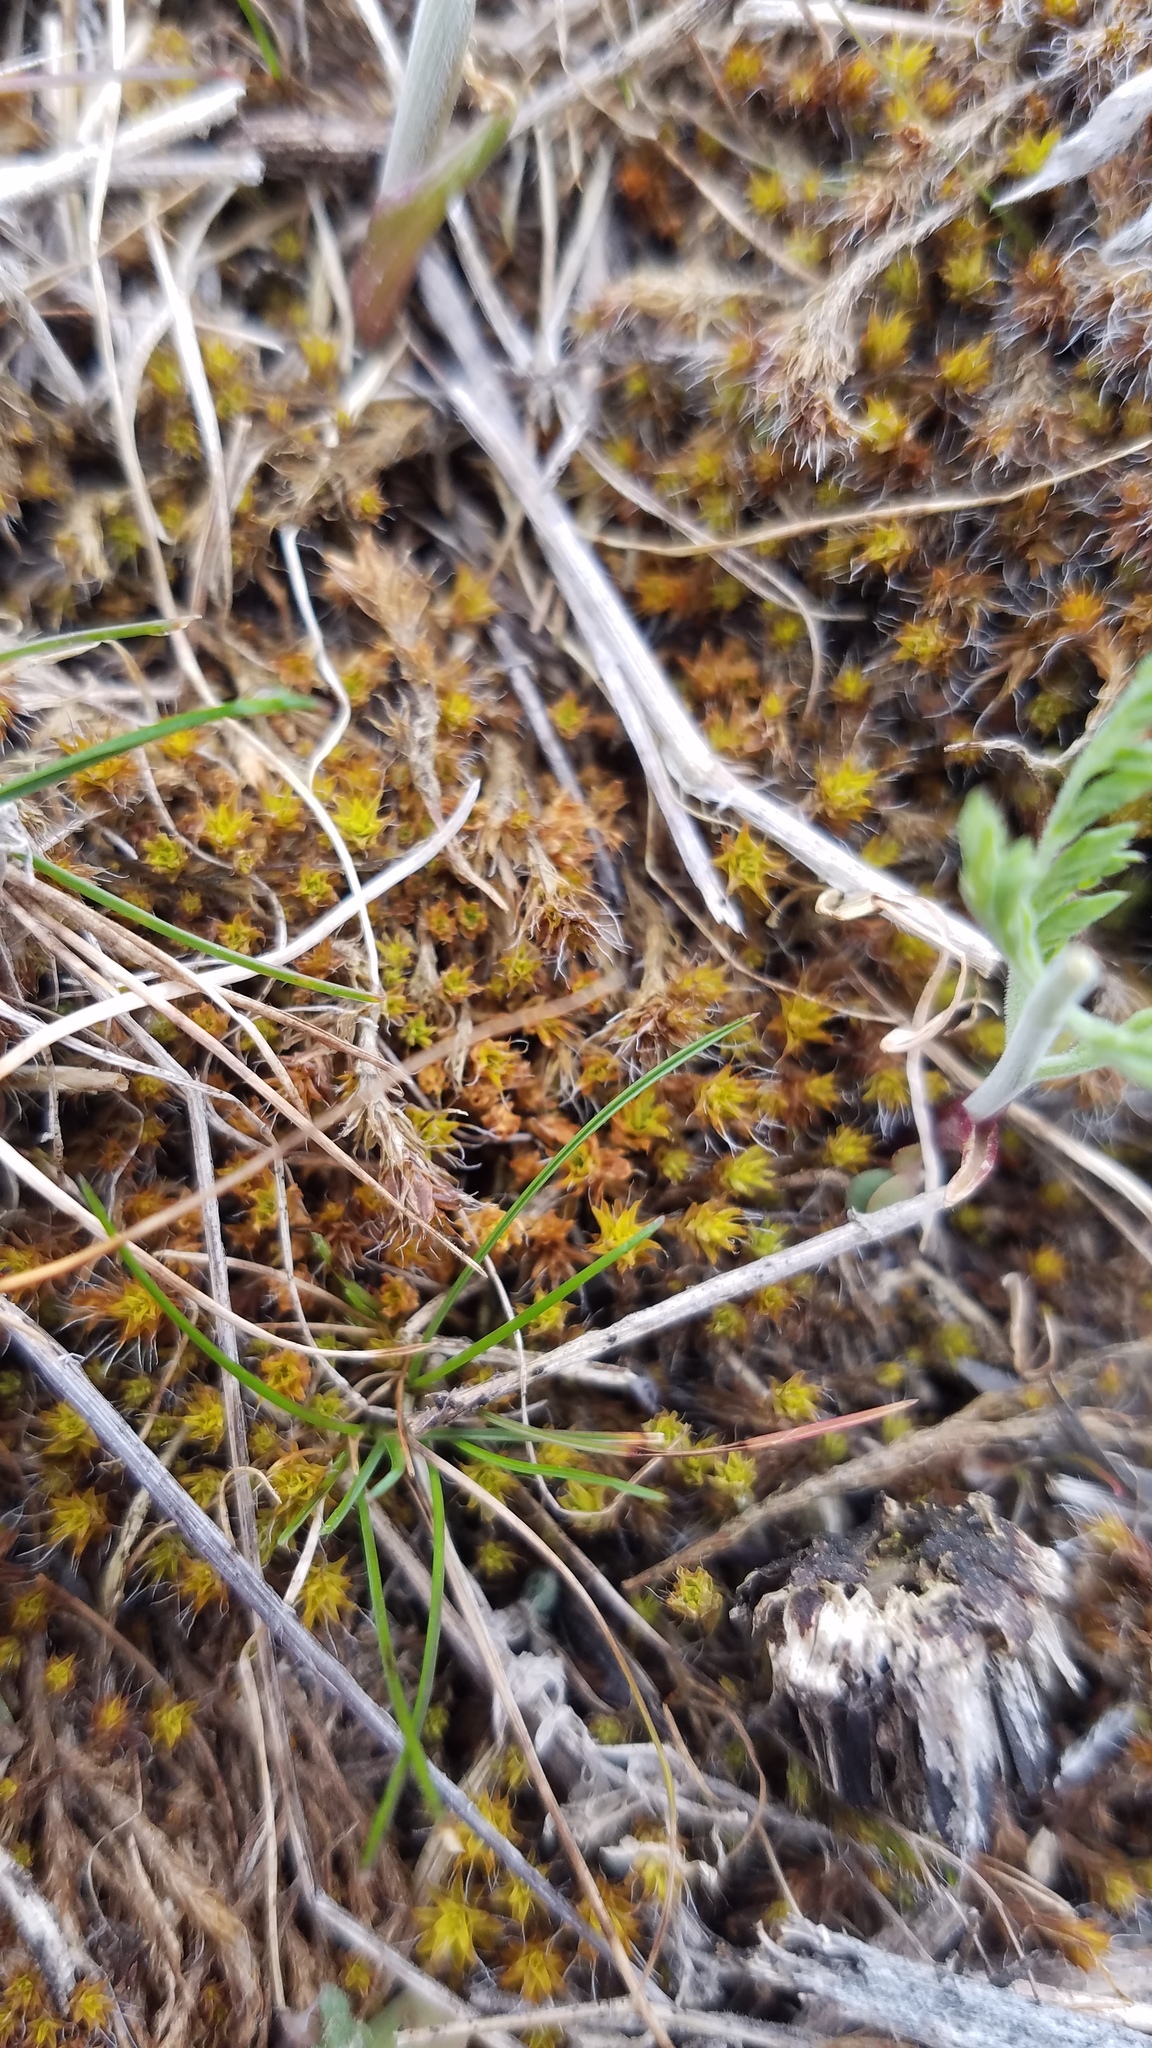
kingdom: Plantae
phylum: Bryophyta
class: Bryopsida
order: Pottiales
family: Pottiaceae
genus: Syntrichia
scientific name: Syntrichia ruralis
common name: Sidewalk screw moss
